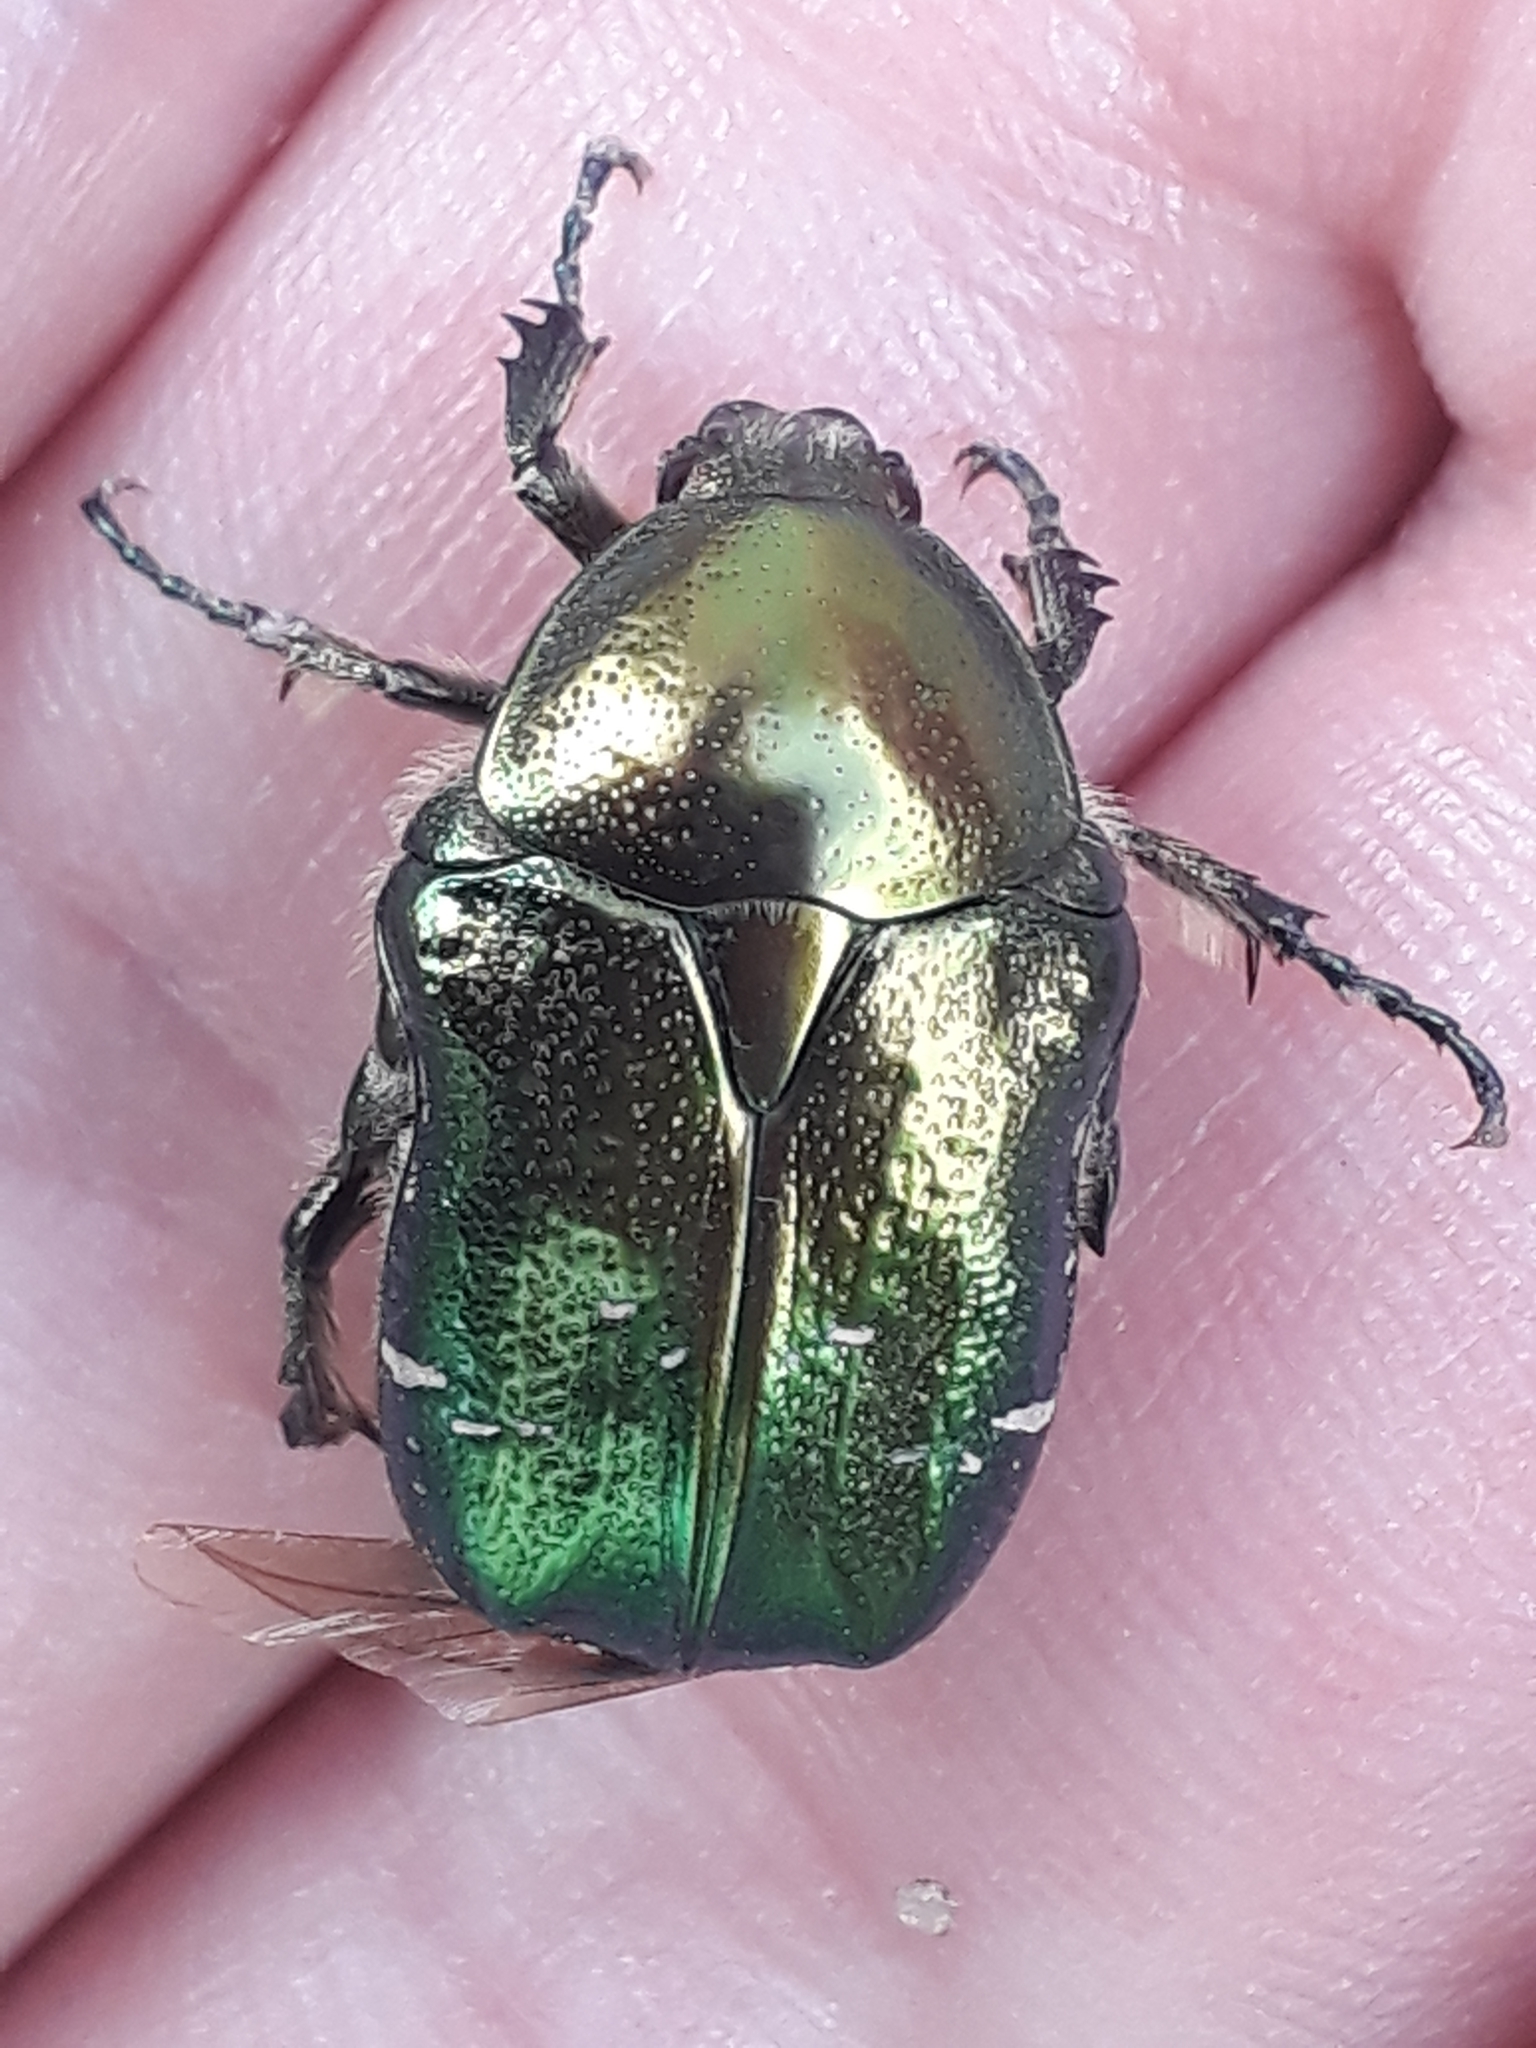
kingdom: Animalia
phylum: Arthropoda
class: Insecta
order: Coleoptera
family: Scarabaeidae
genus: Cetonia
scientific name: Cetonia aurata
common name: Rose chafer
